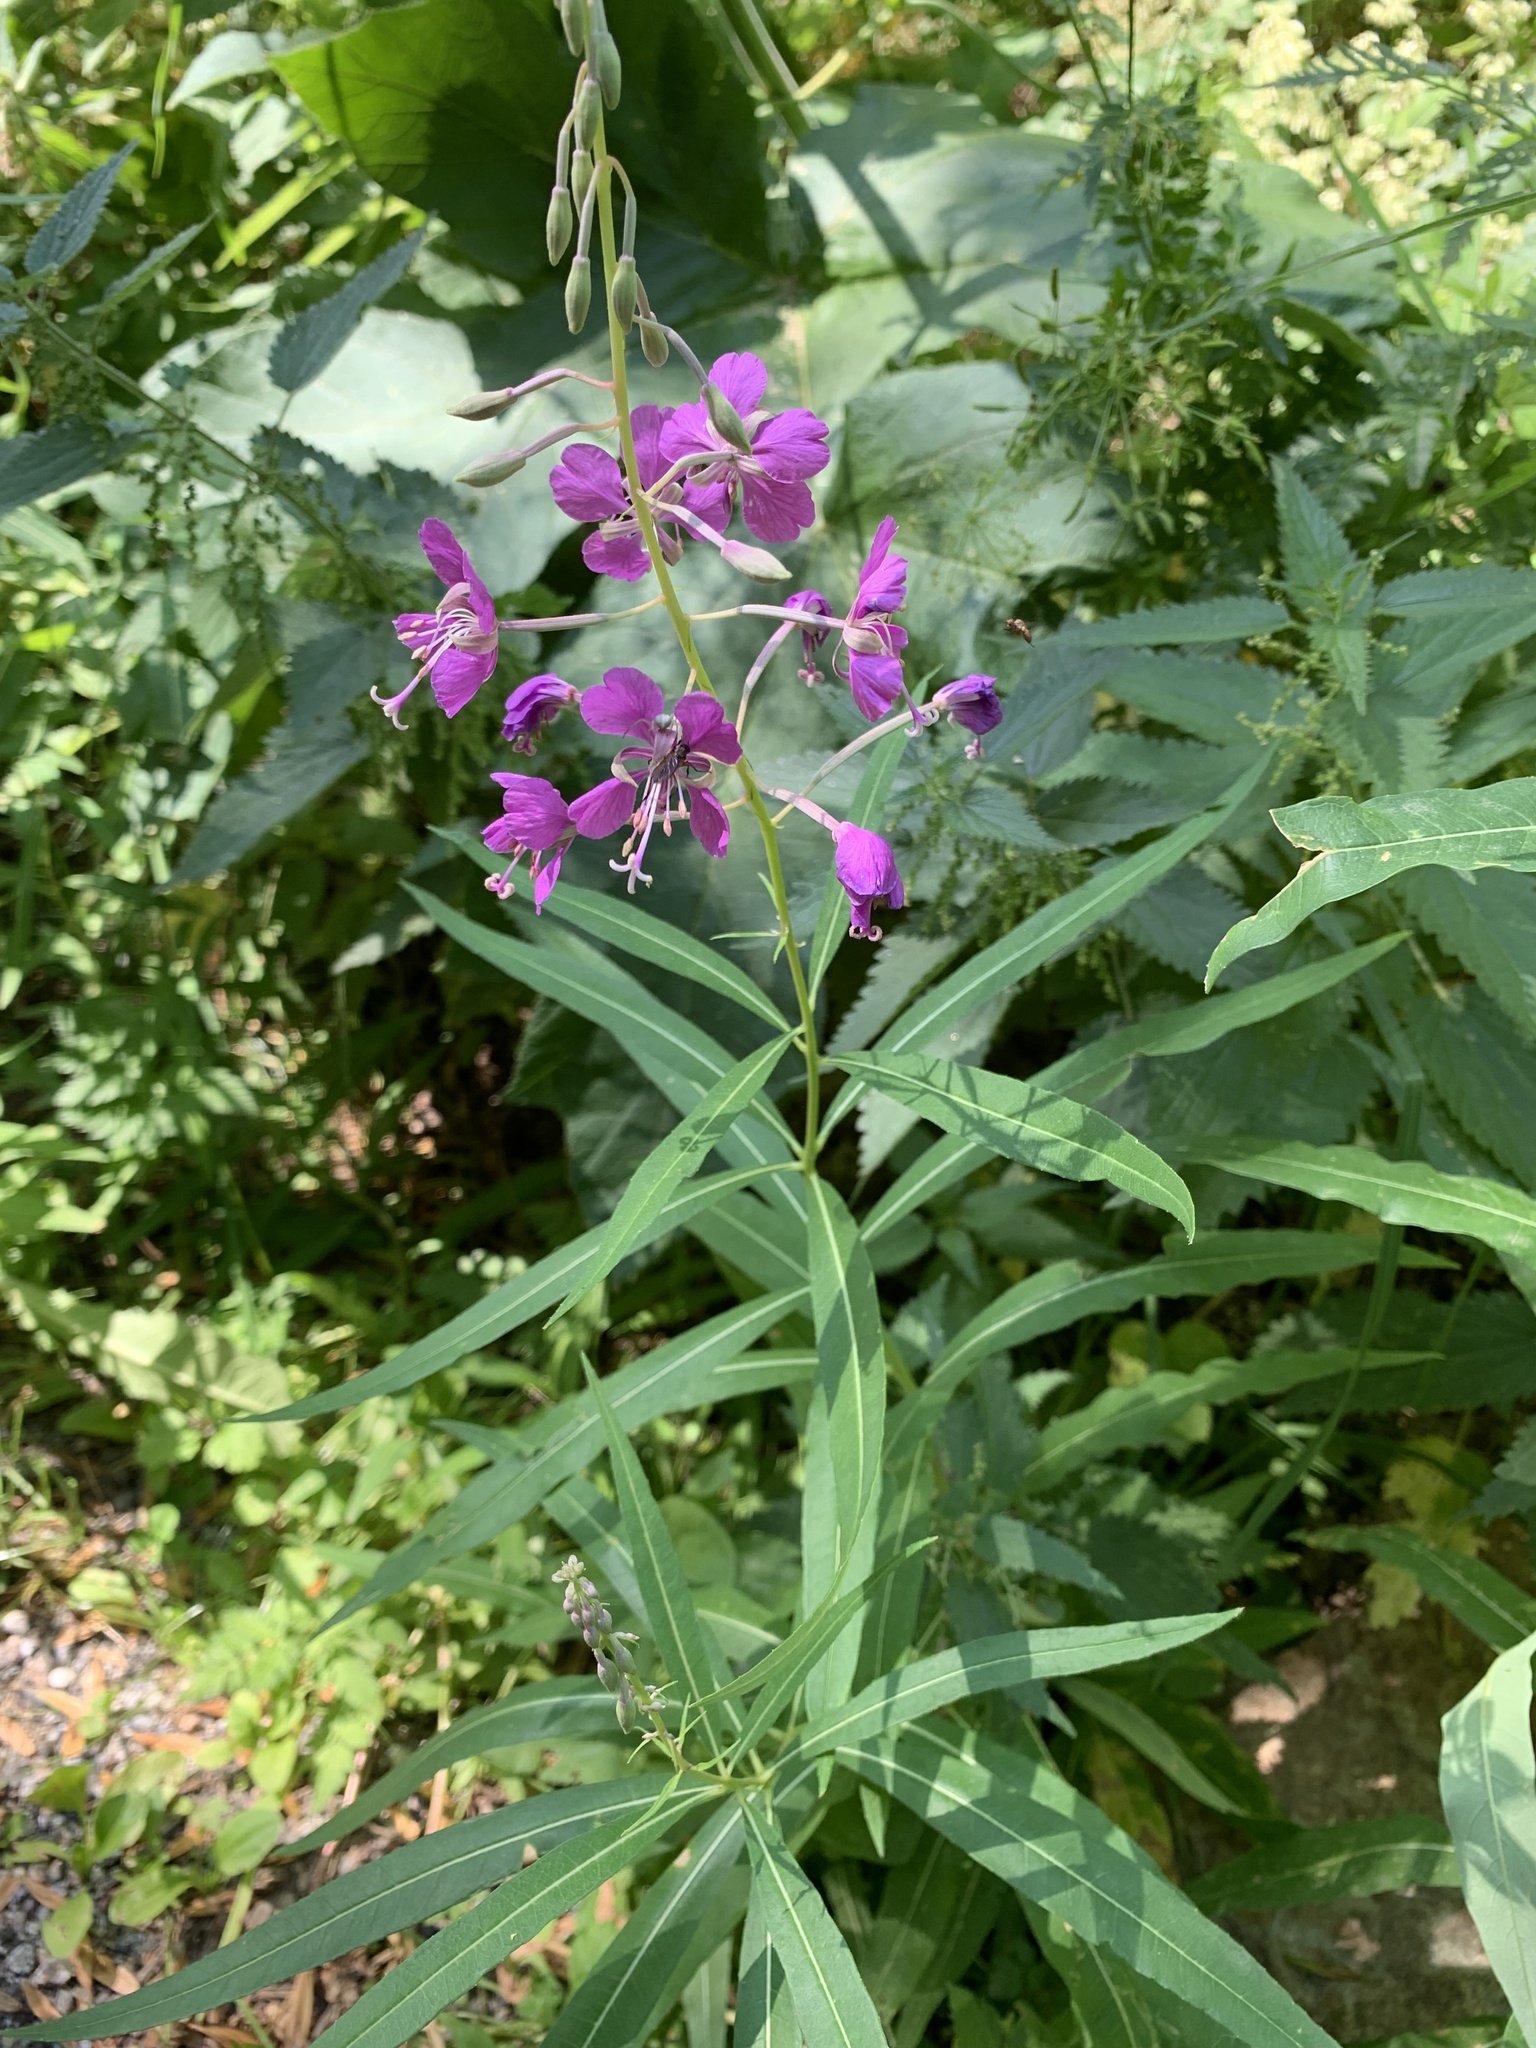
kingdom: Plantae
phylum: Tracheophyta
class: Magnoliopsida
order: Myrtales
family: Onagraceae
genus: Chamaenerion
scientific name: Chamaenerion angustifolium
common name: Fireweed
